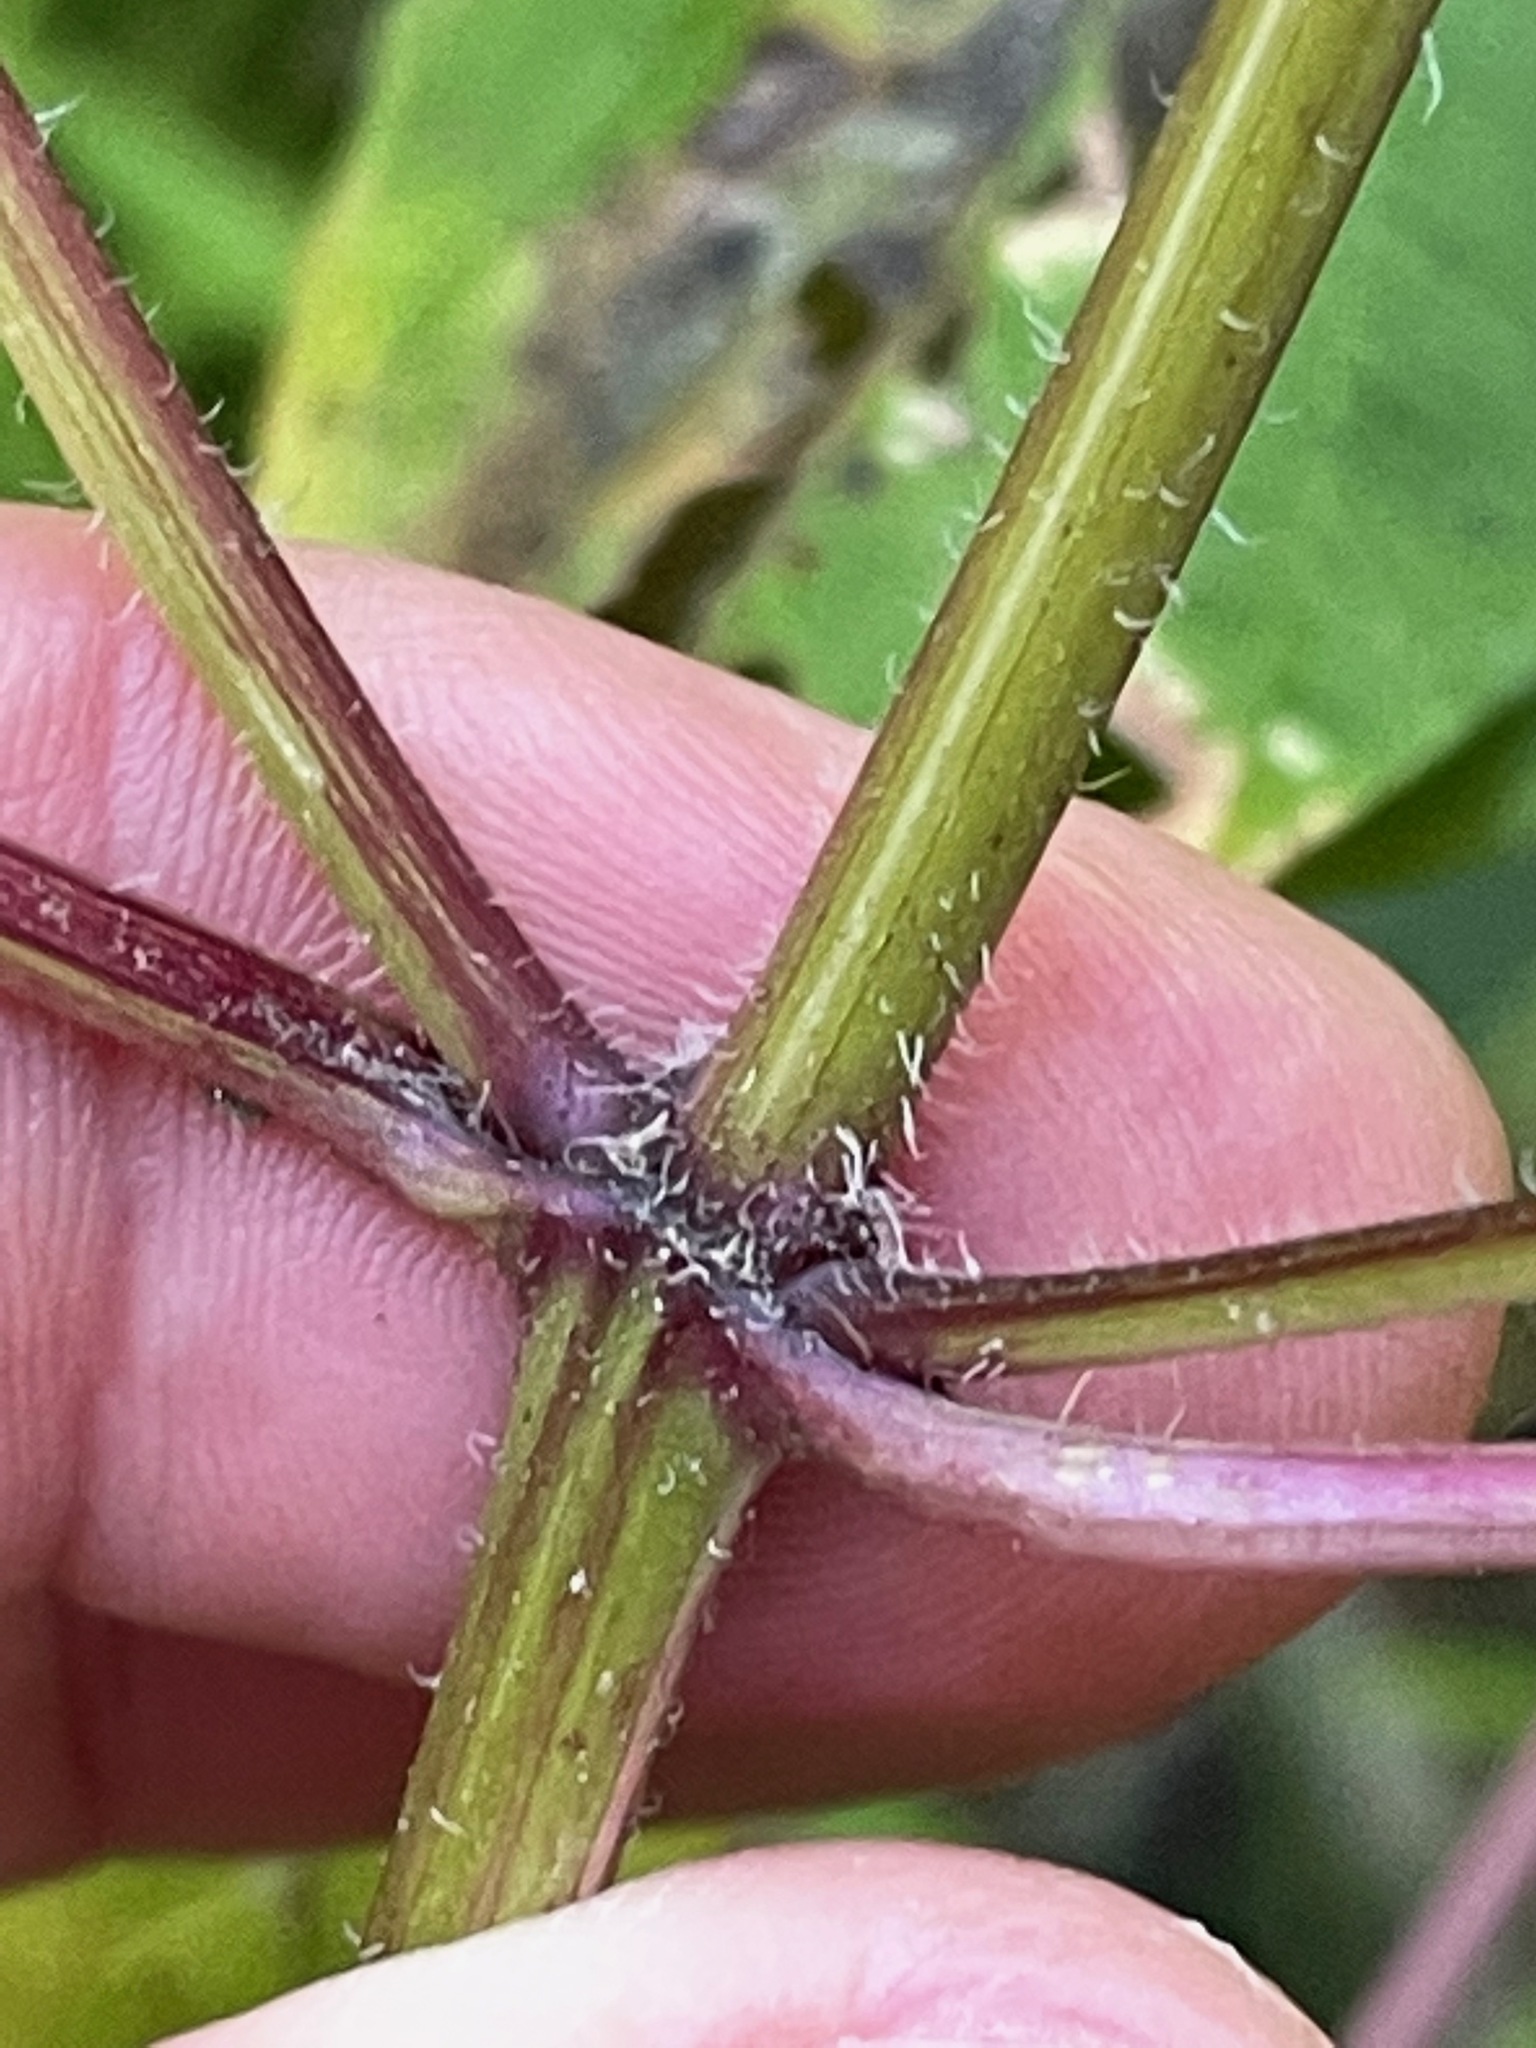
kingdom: Plantae
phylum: Tracheophyta
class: Magnoliopsida
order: Asterales
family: Asteraceae
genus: Bidens
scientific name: Bidens frondosa
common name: Beggarticks
